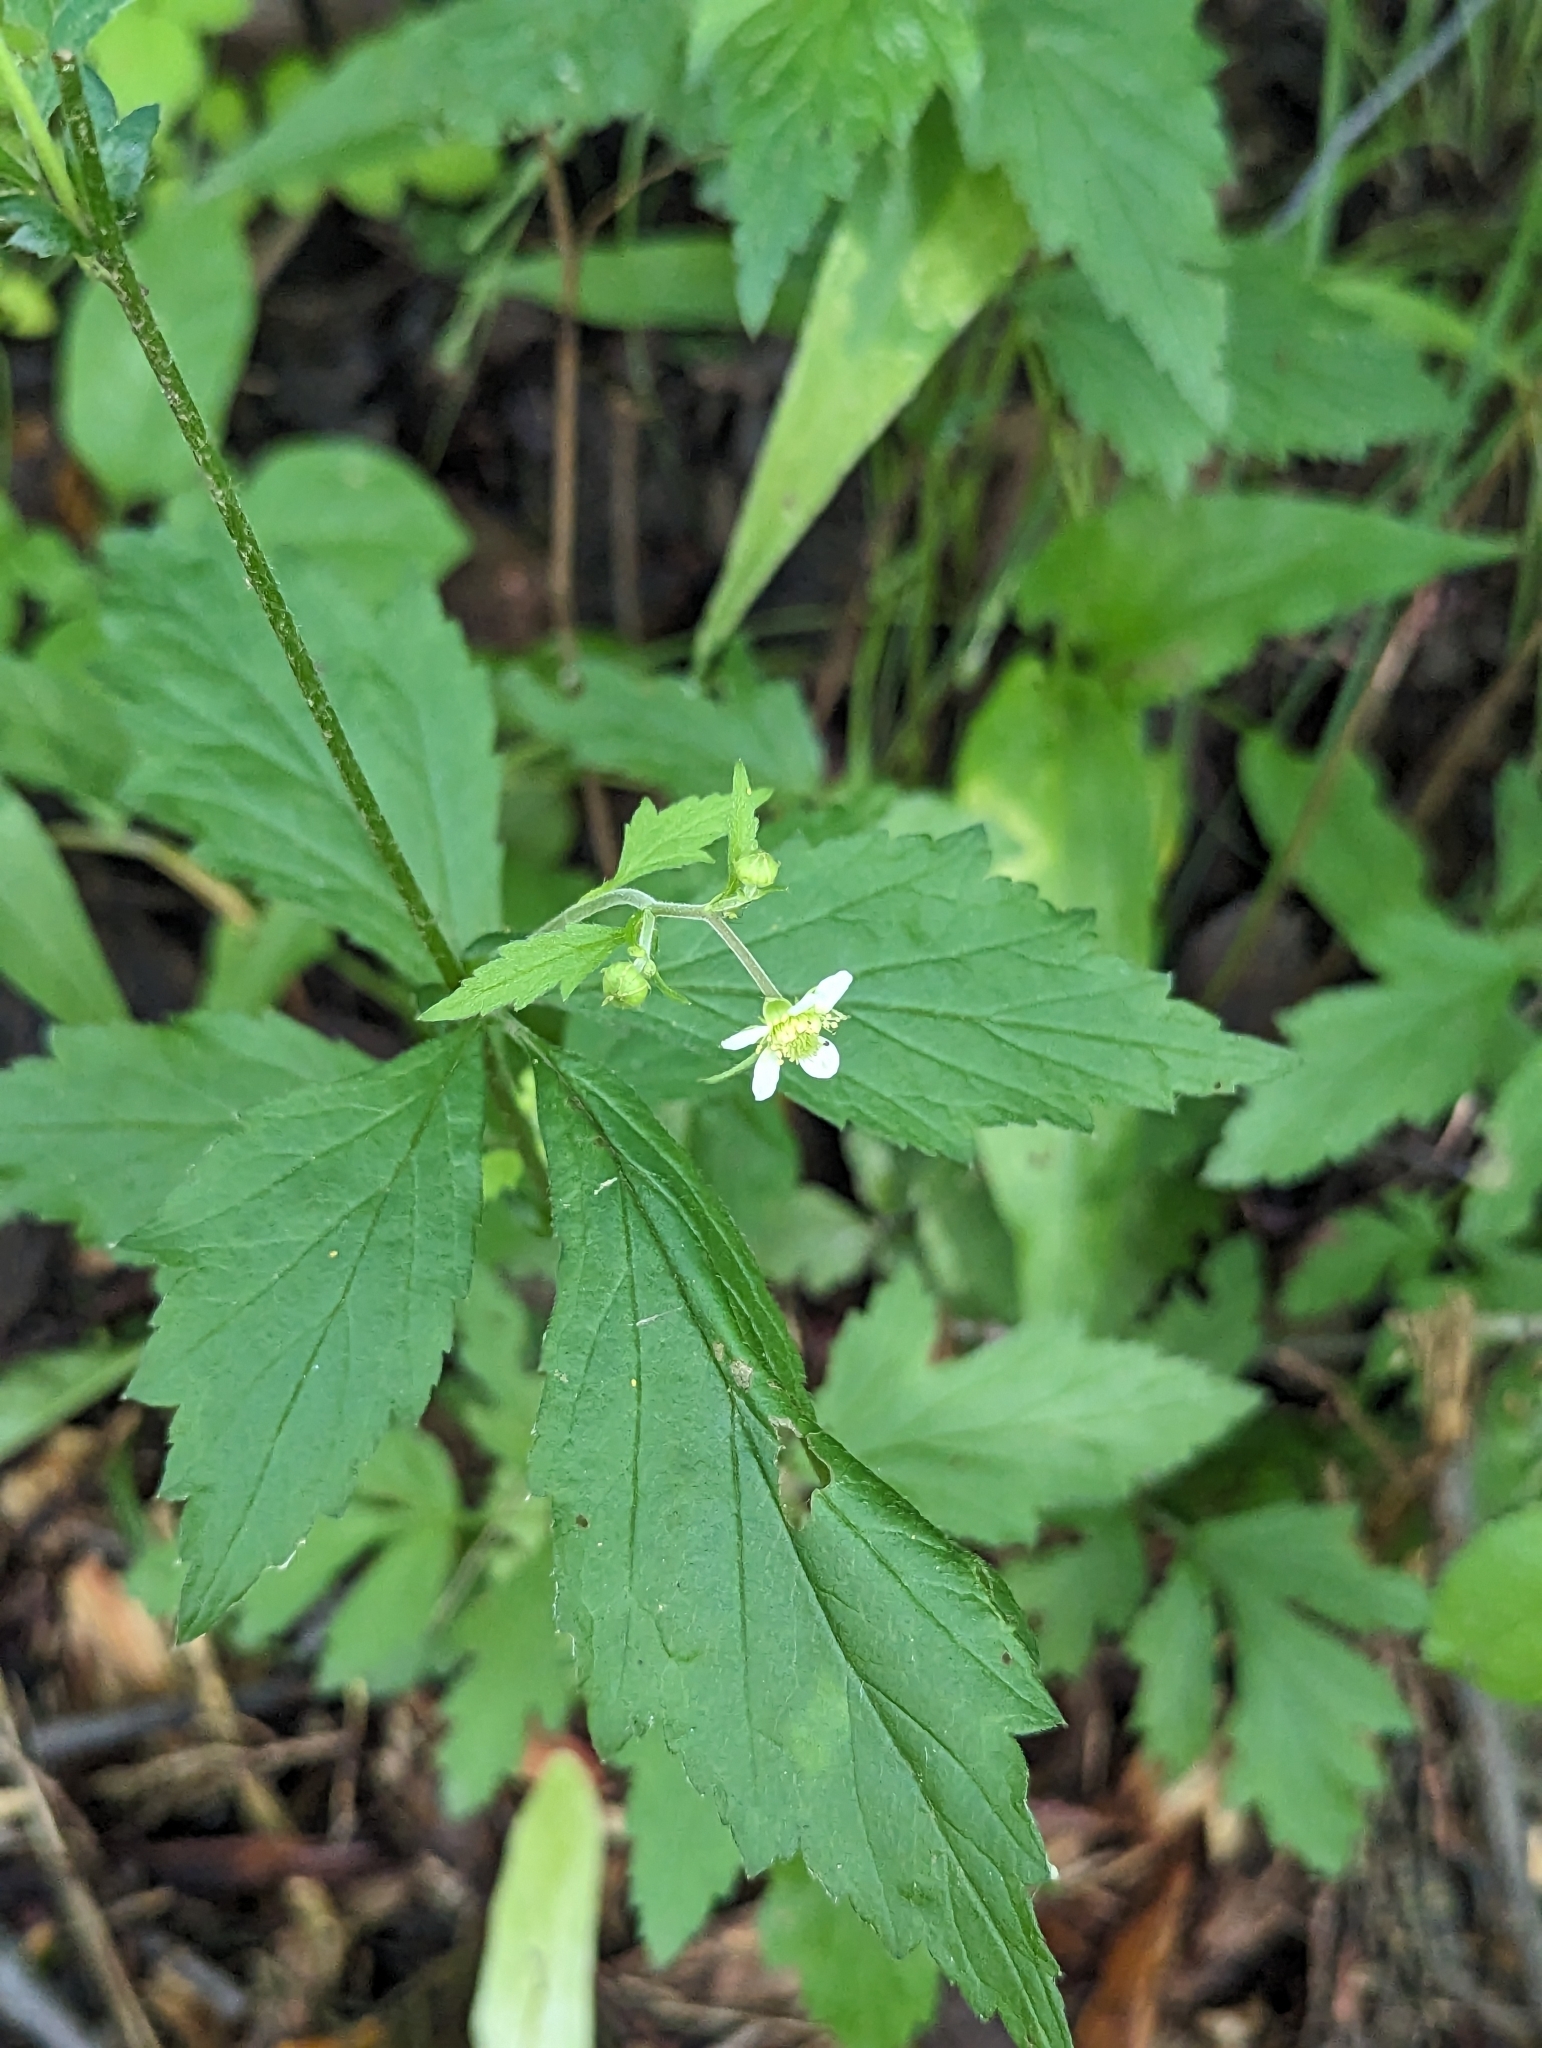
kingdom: Plantae
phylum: Tracheophyta
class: Magnoliopsida
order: Rosales
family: Rosaceae
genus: Geum
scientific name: Geum canadense
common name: White avens
